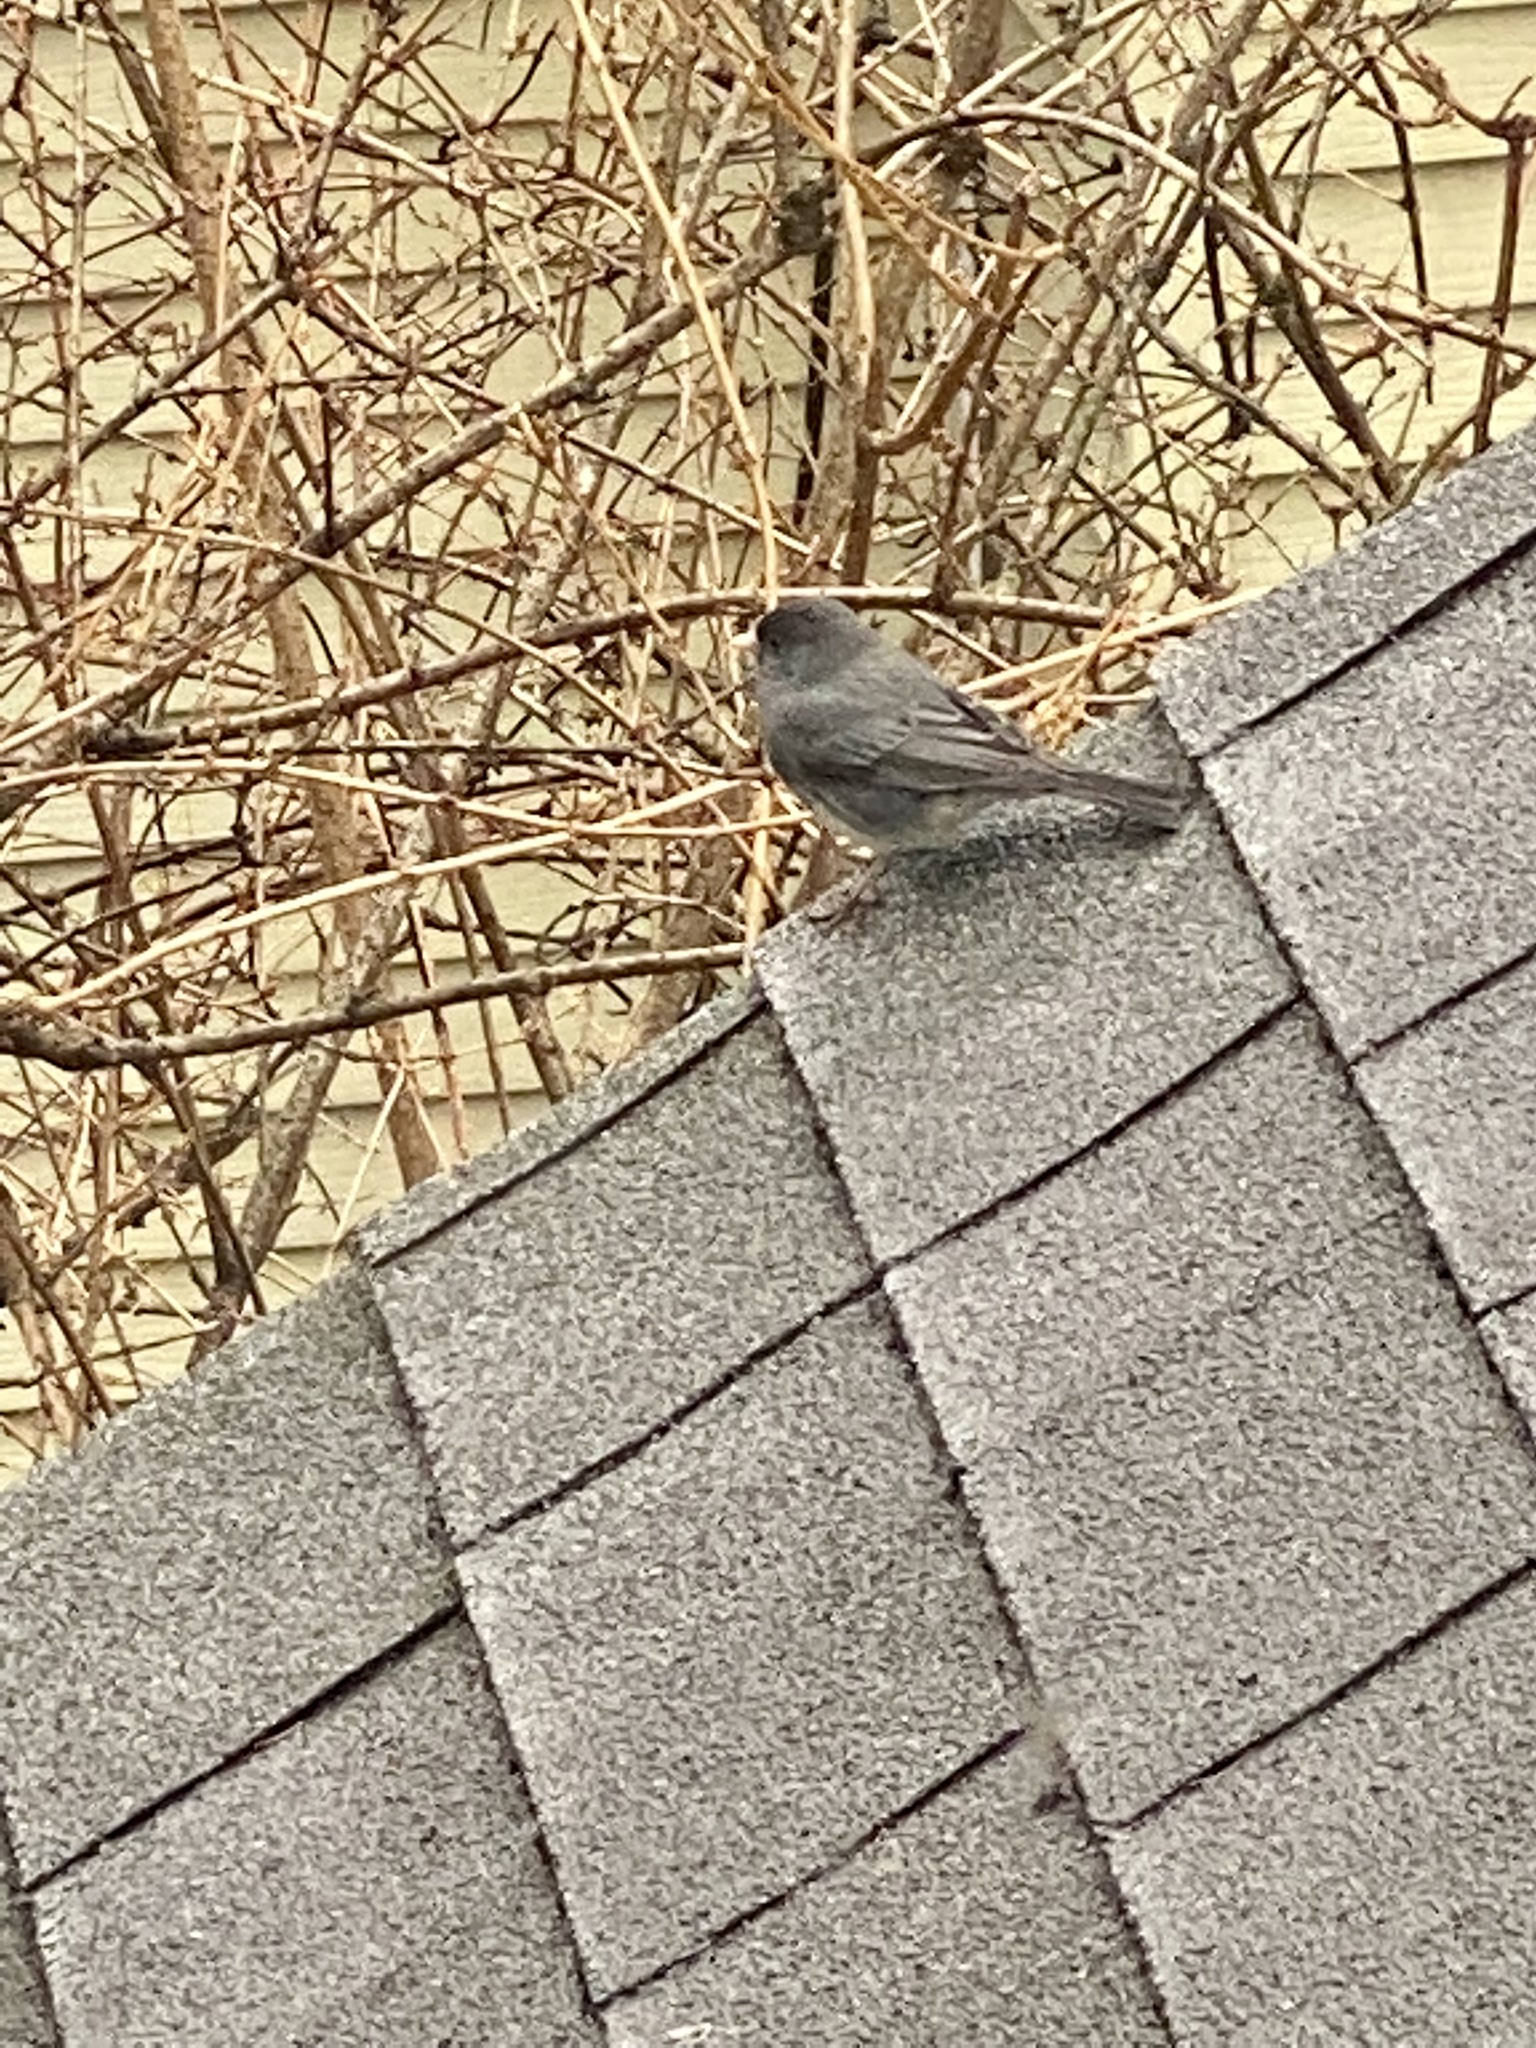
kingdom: Animalia
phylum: Chordata
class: Aves
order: Passeriformes
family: Passerellidae
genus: Junco
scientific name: Junco hyemalis
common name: Dark-eyed junco
